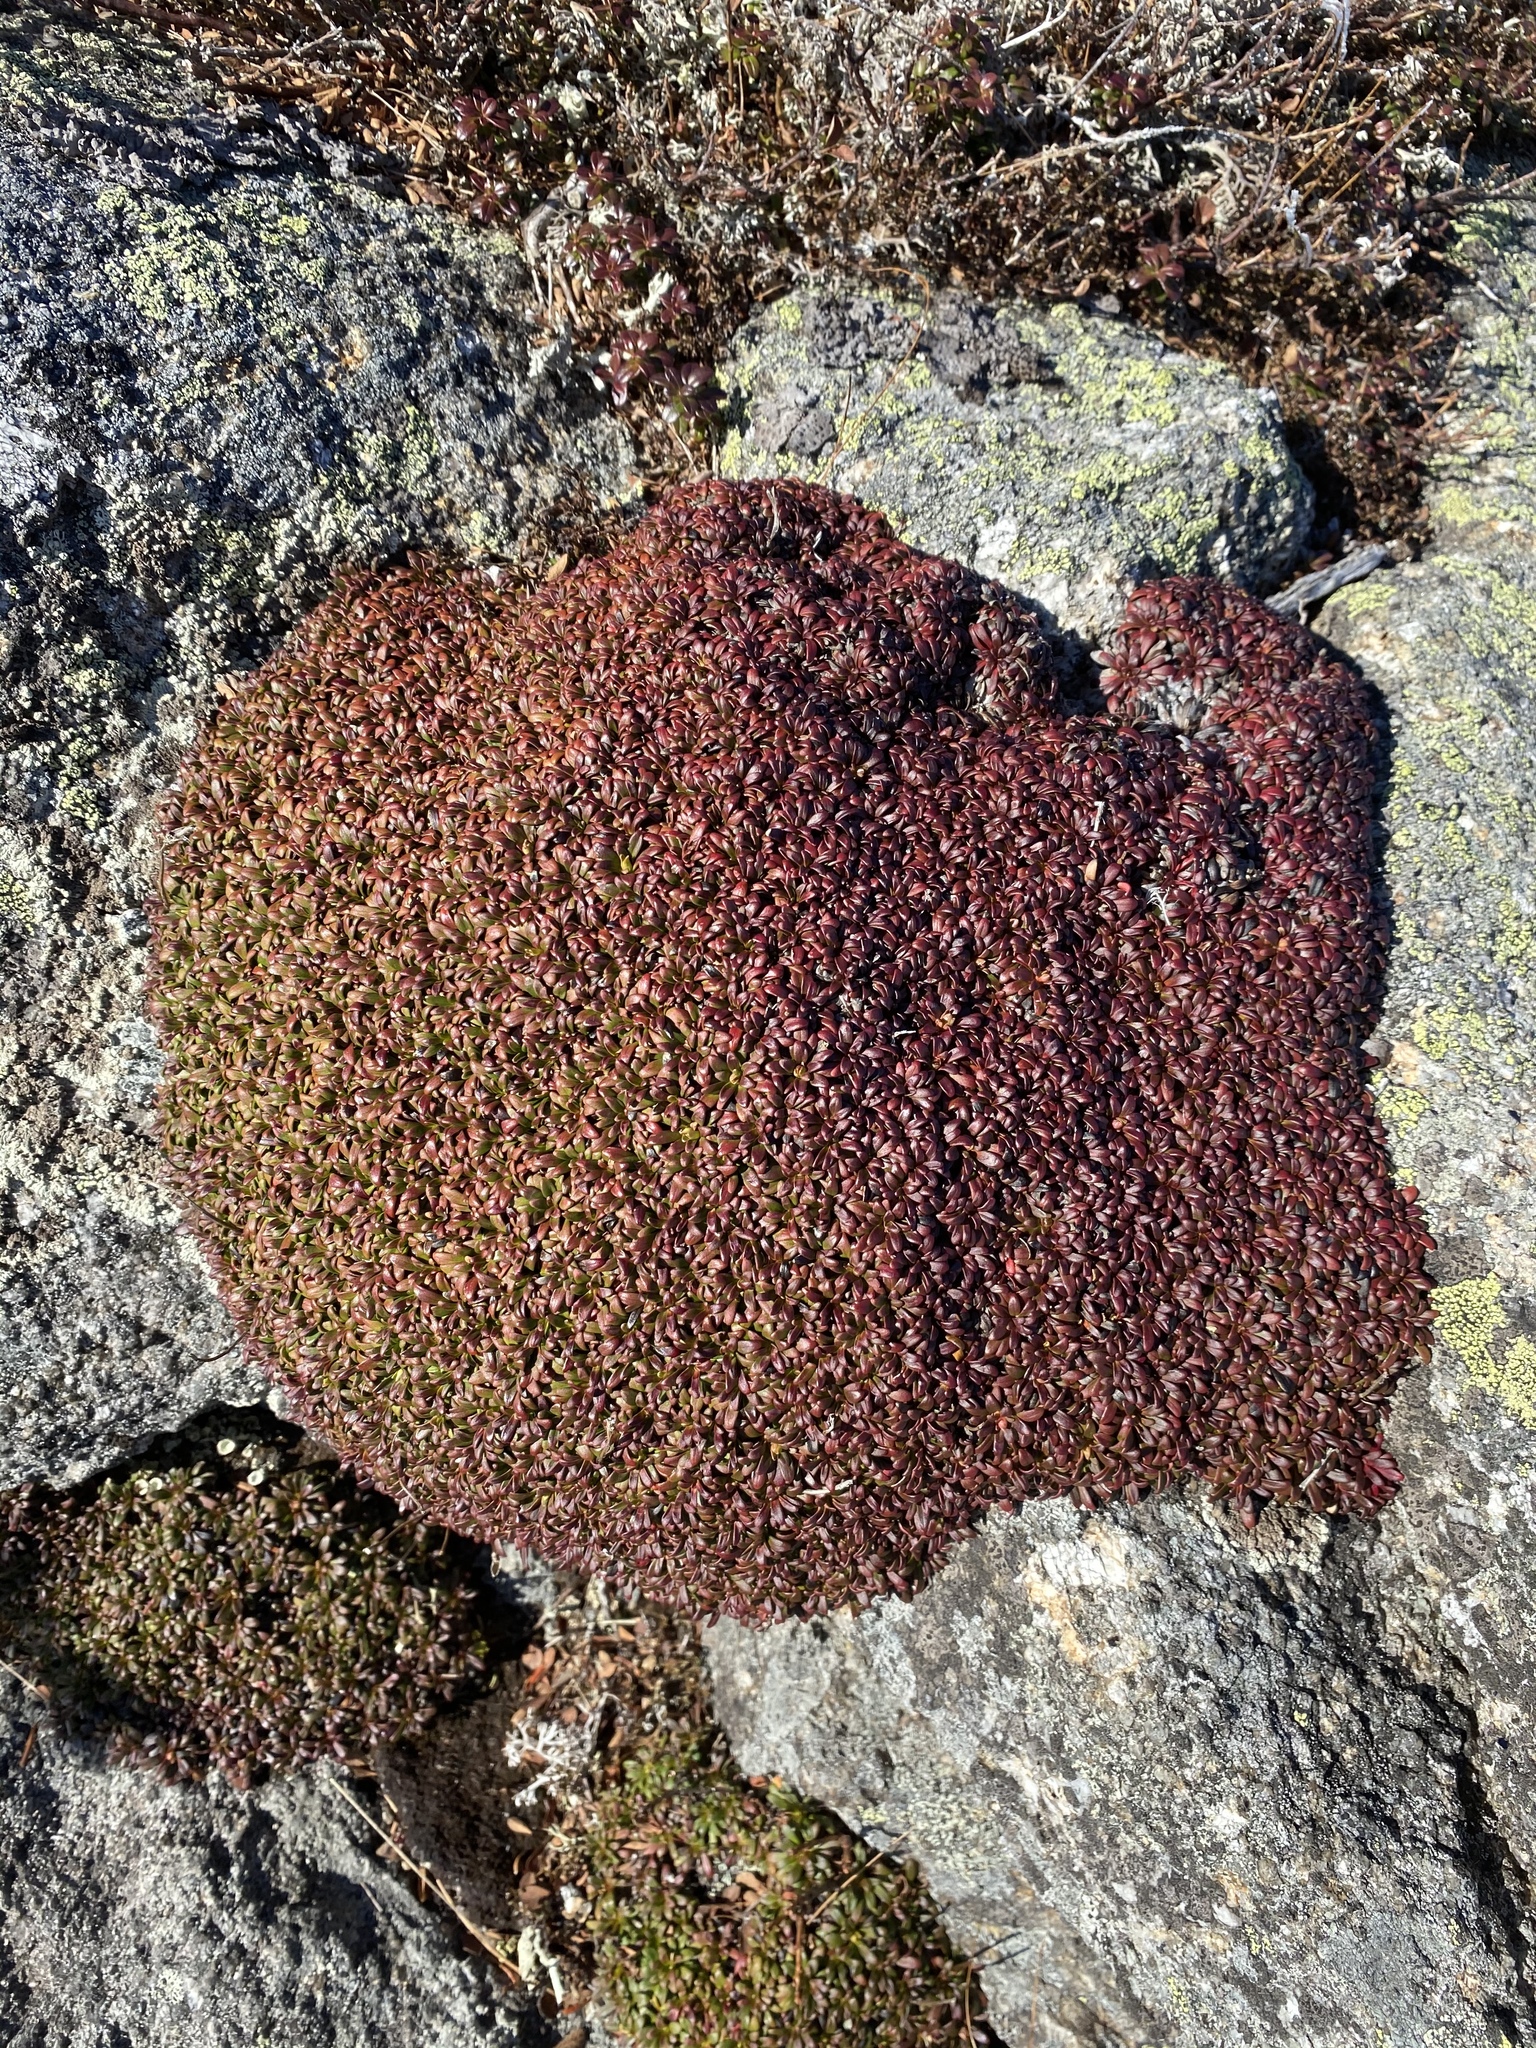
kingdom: Plantae
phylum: Tracheophyta
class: Magnoliopsida
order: Ericales
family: Diapensiaceae
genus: Diapensia
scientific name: Diapensia lapponica
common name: Diapensia
